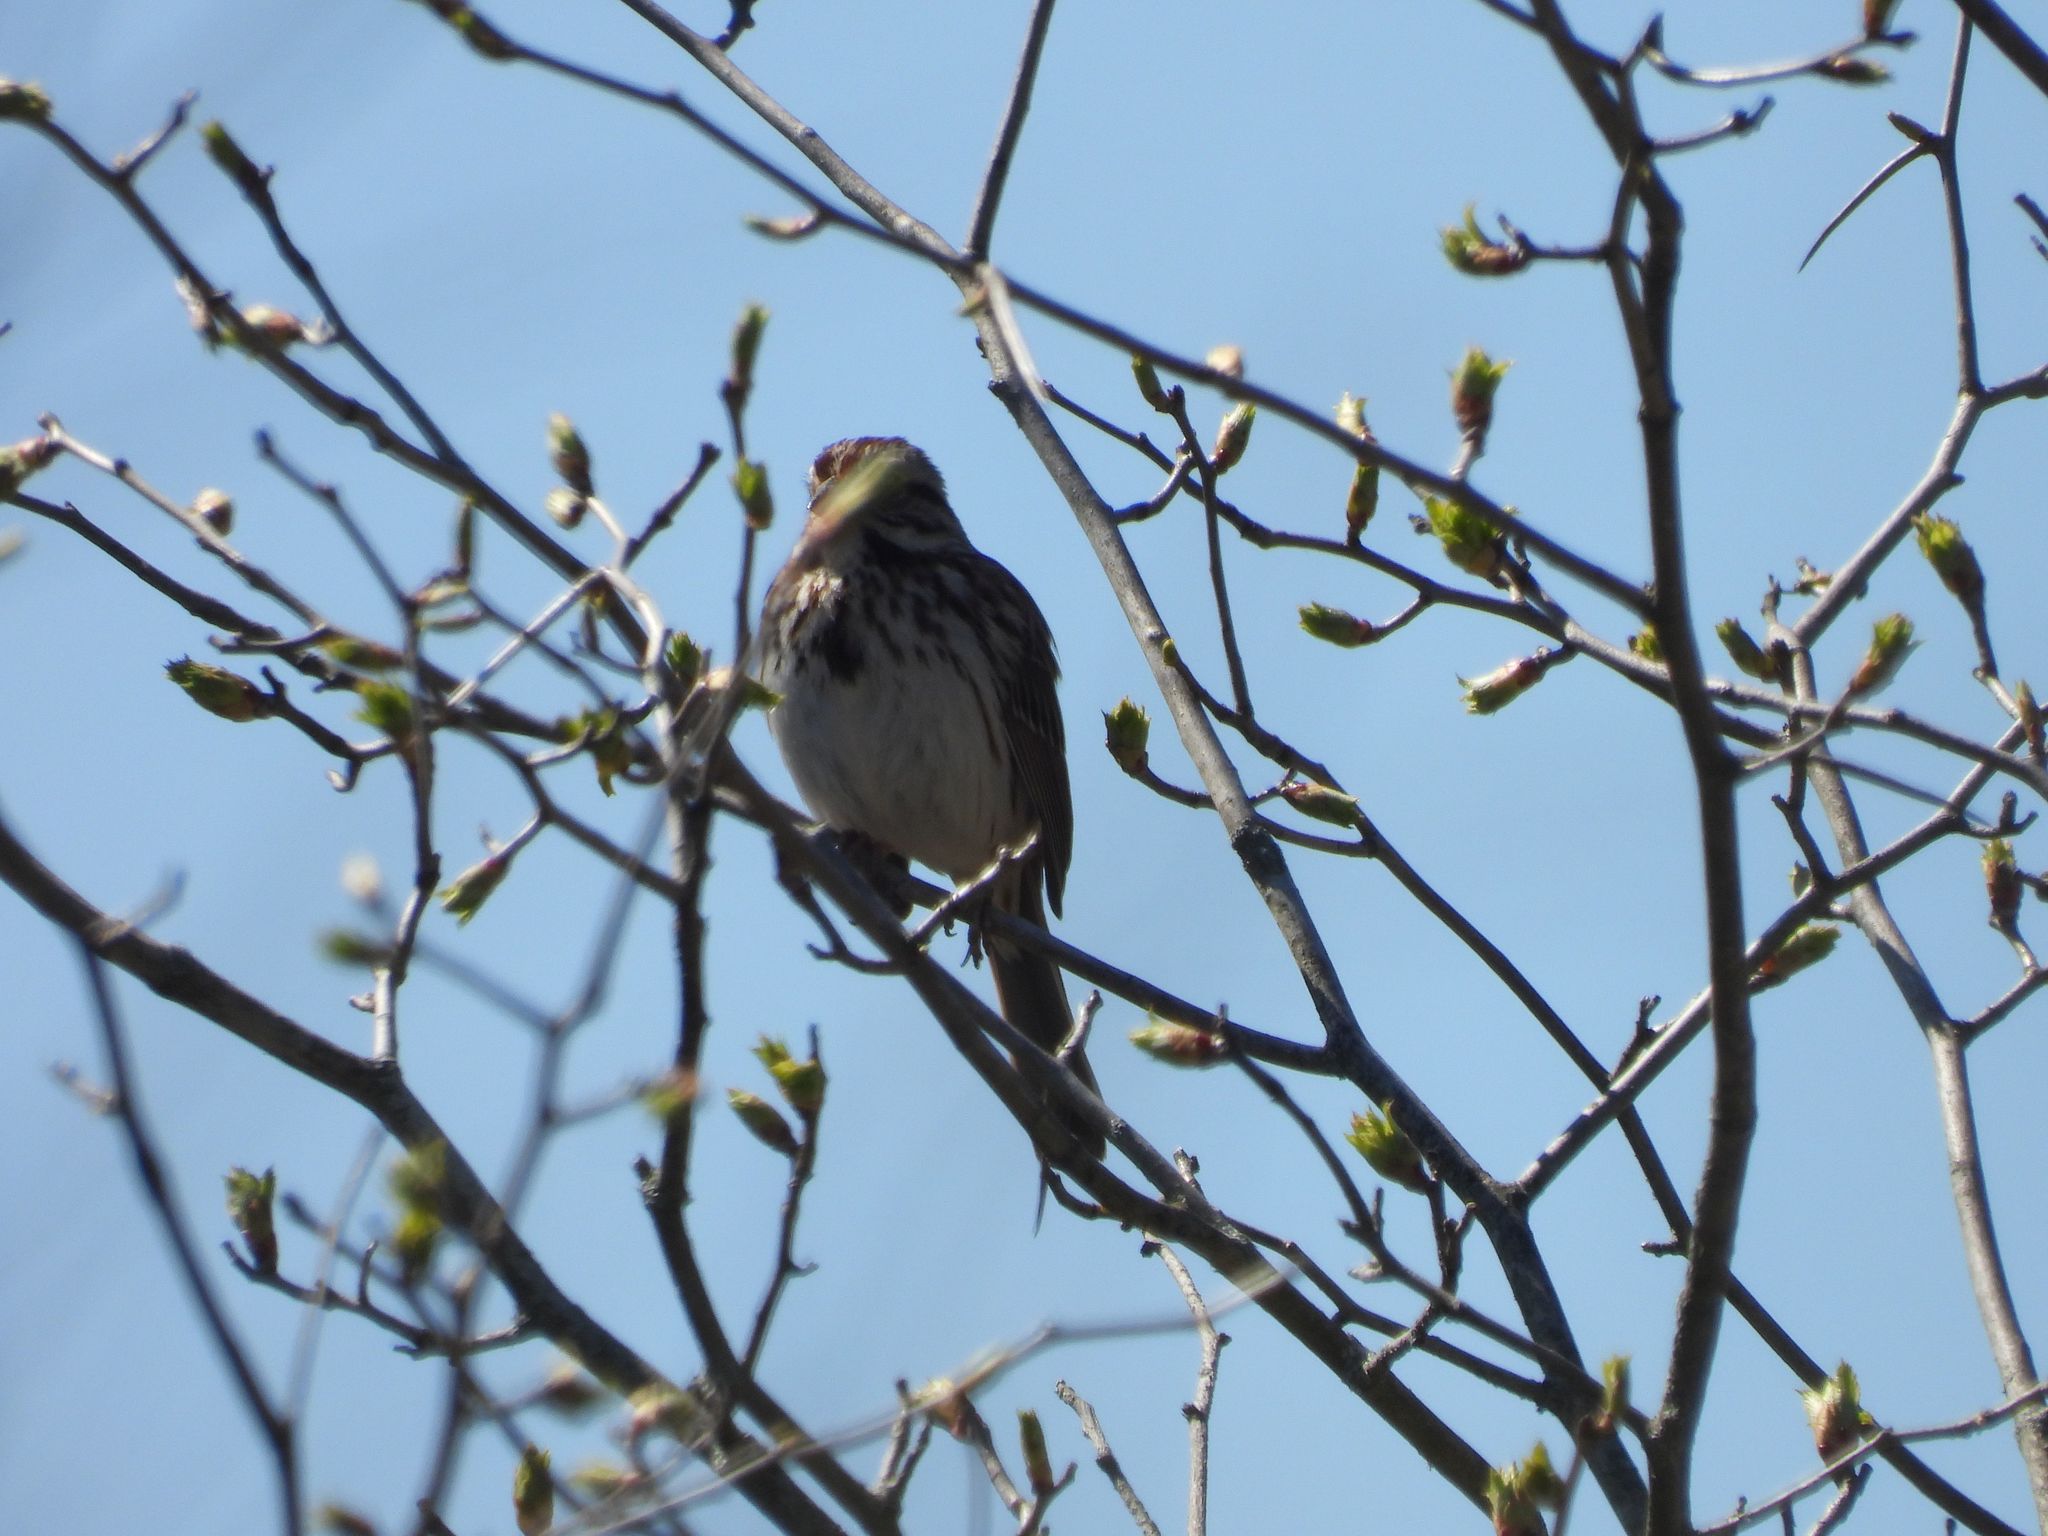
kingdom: Animalia
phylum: Chordata
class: Aves
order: Passeriformes
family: Passerellidae
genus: Melospiza
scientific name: Melospiza melodia
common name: Song sparrow
